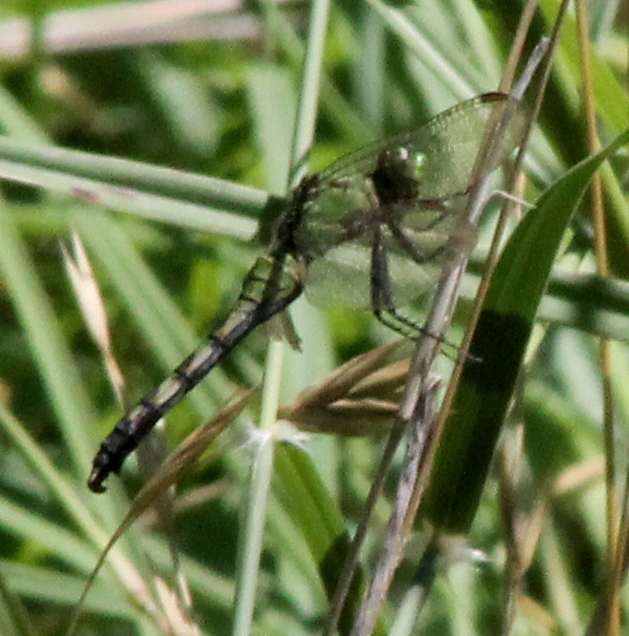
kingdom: Animalia
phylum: Arthropoda
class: Insecta
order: Odonata
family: Libellulidae
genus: Erythemis
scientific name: Erythemis simplicicollis
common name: Eastern pondhawk
